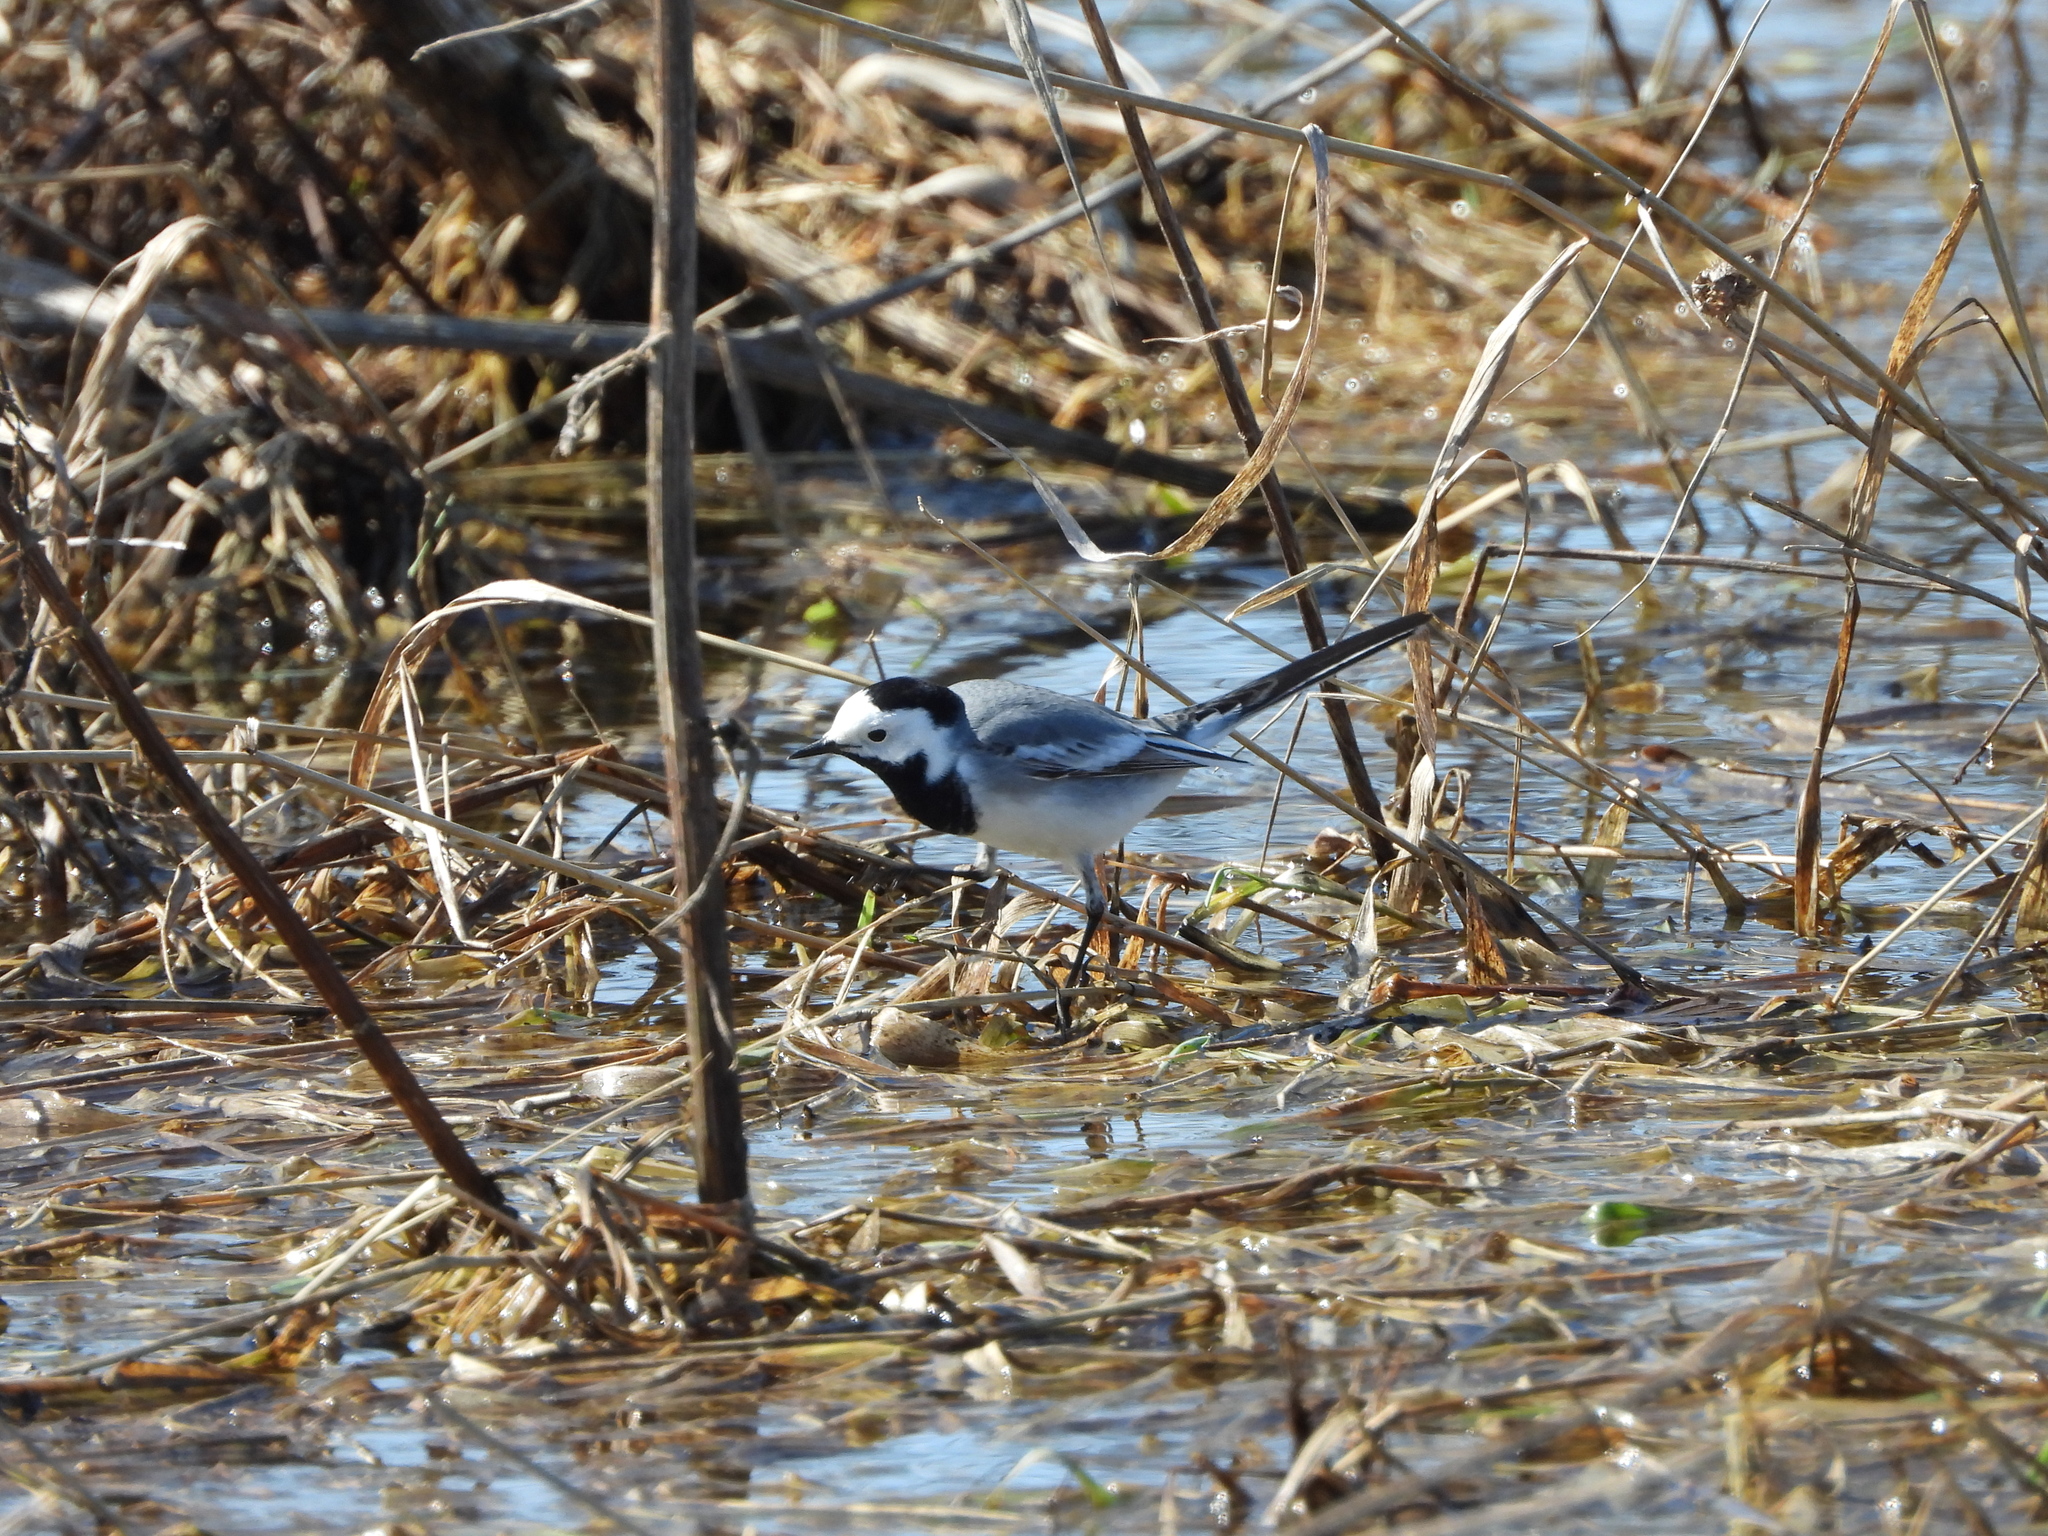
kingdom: Animalia
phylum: Chordata
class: Aves
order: Passeriformes
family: Motacillidae
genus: Motacilla
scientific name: Motacilla alba
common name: White wagtail
